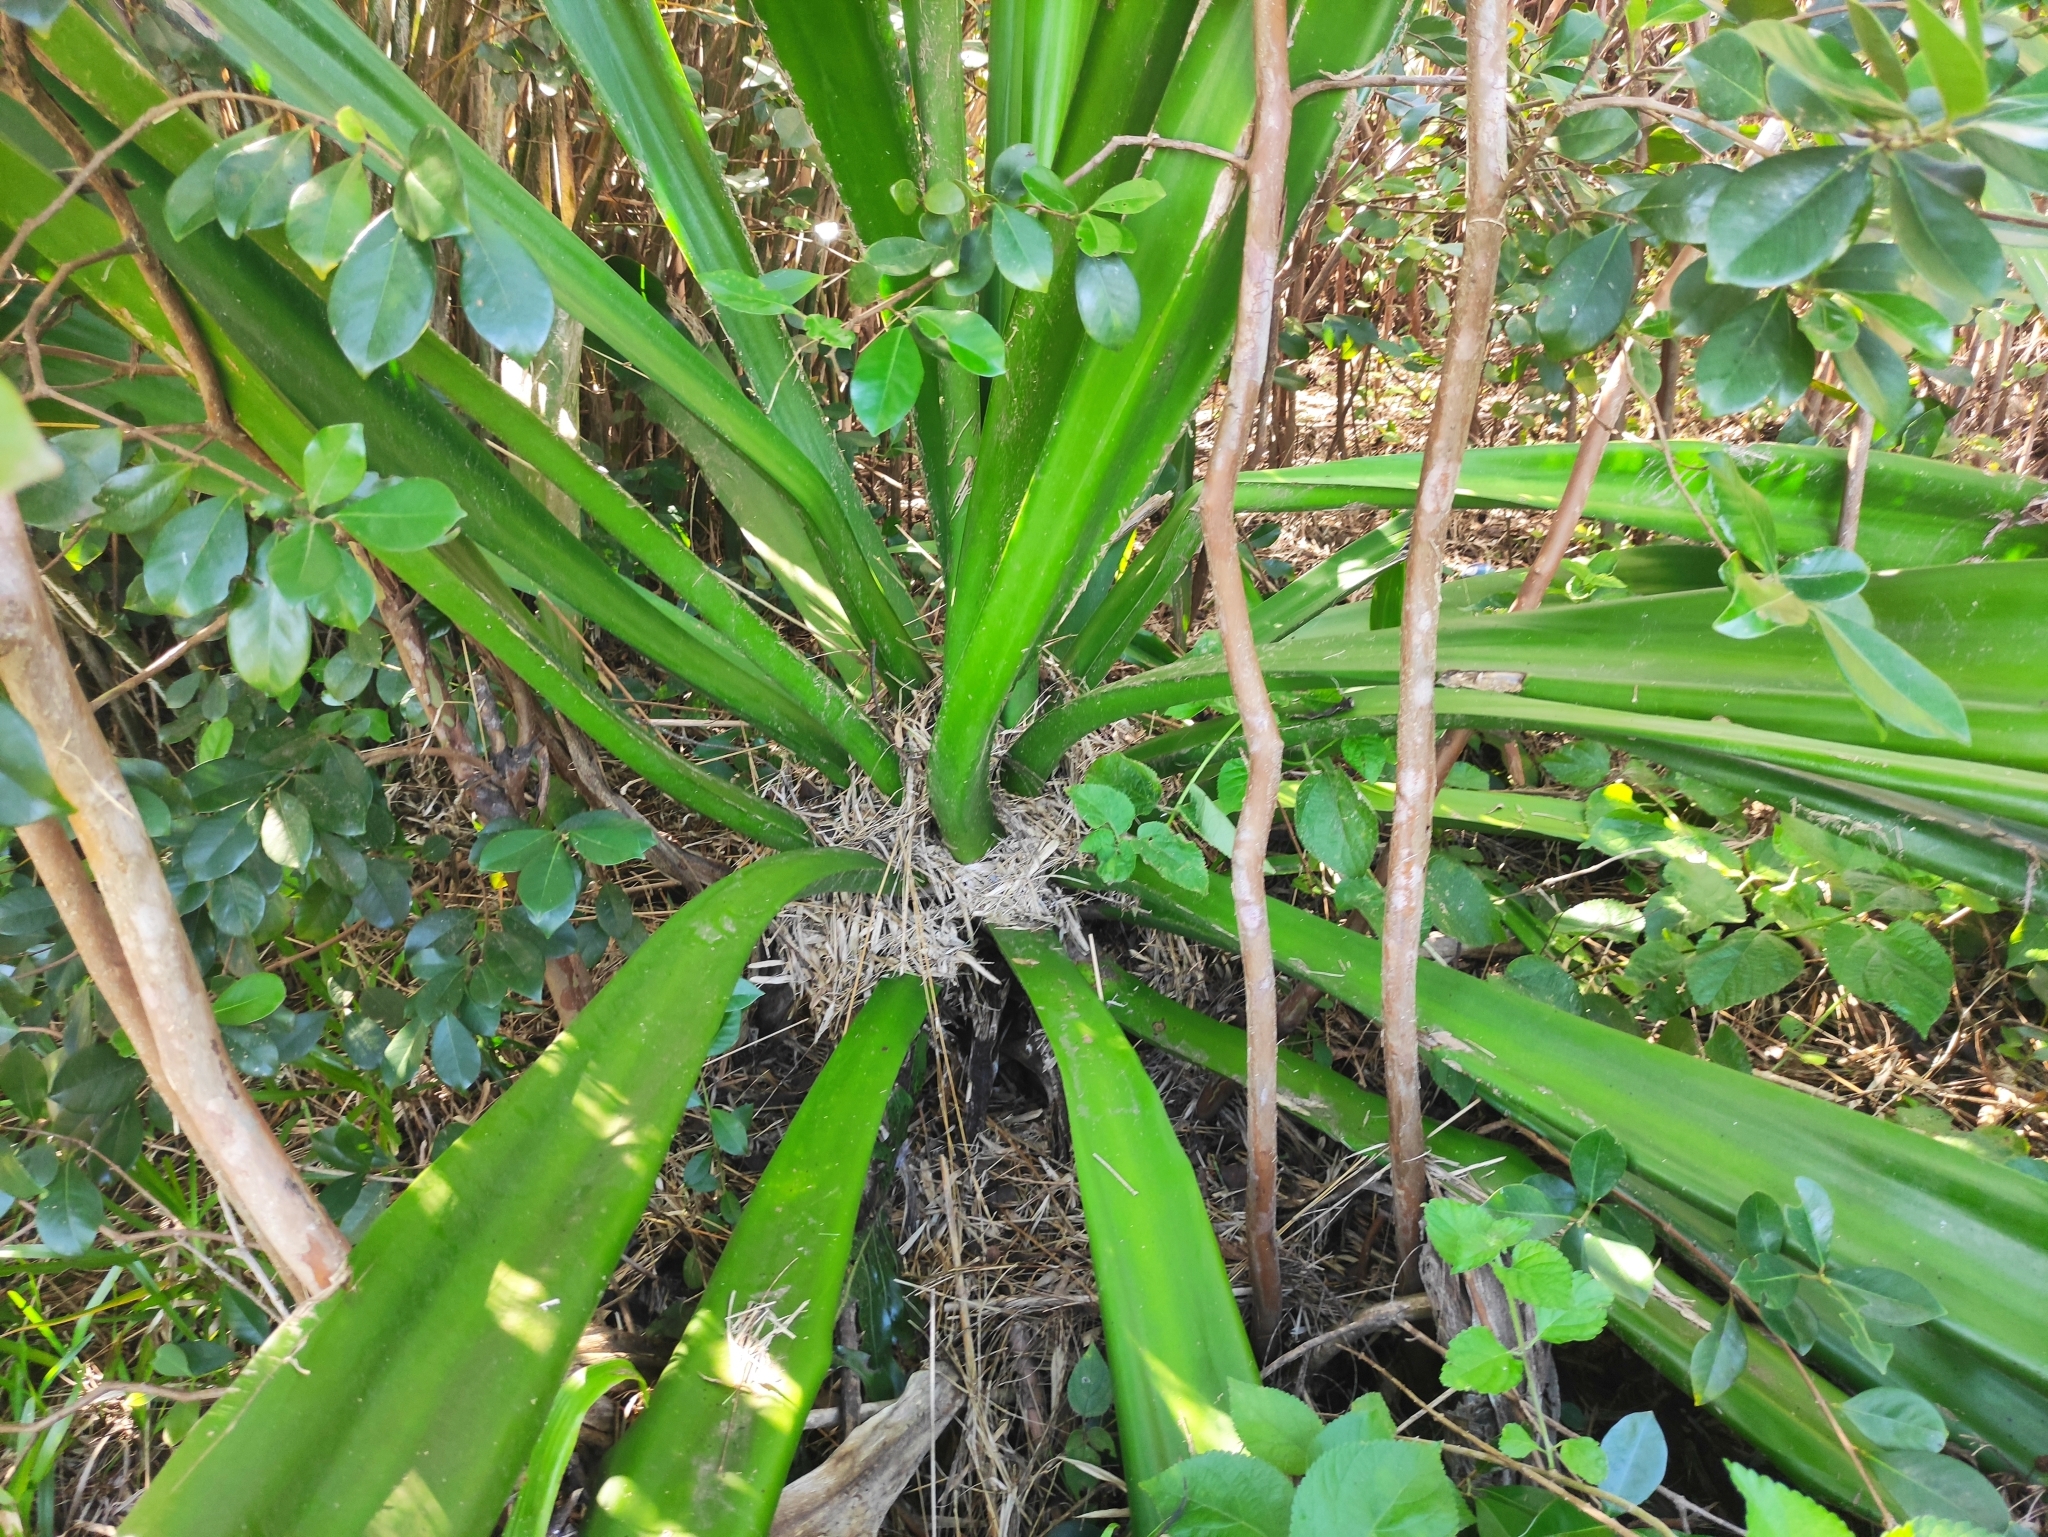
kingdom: Plantae
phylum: Tracheophyta
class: Liliopsida
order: Asparagales
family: Asparagaceae
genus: Furcraea
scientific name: Furcraea foetida
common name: Mauritius hemp
